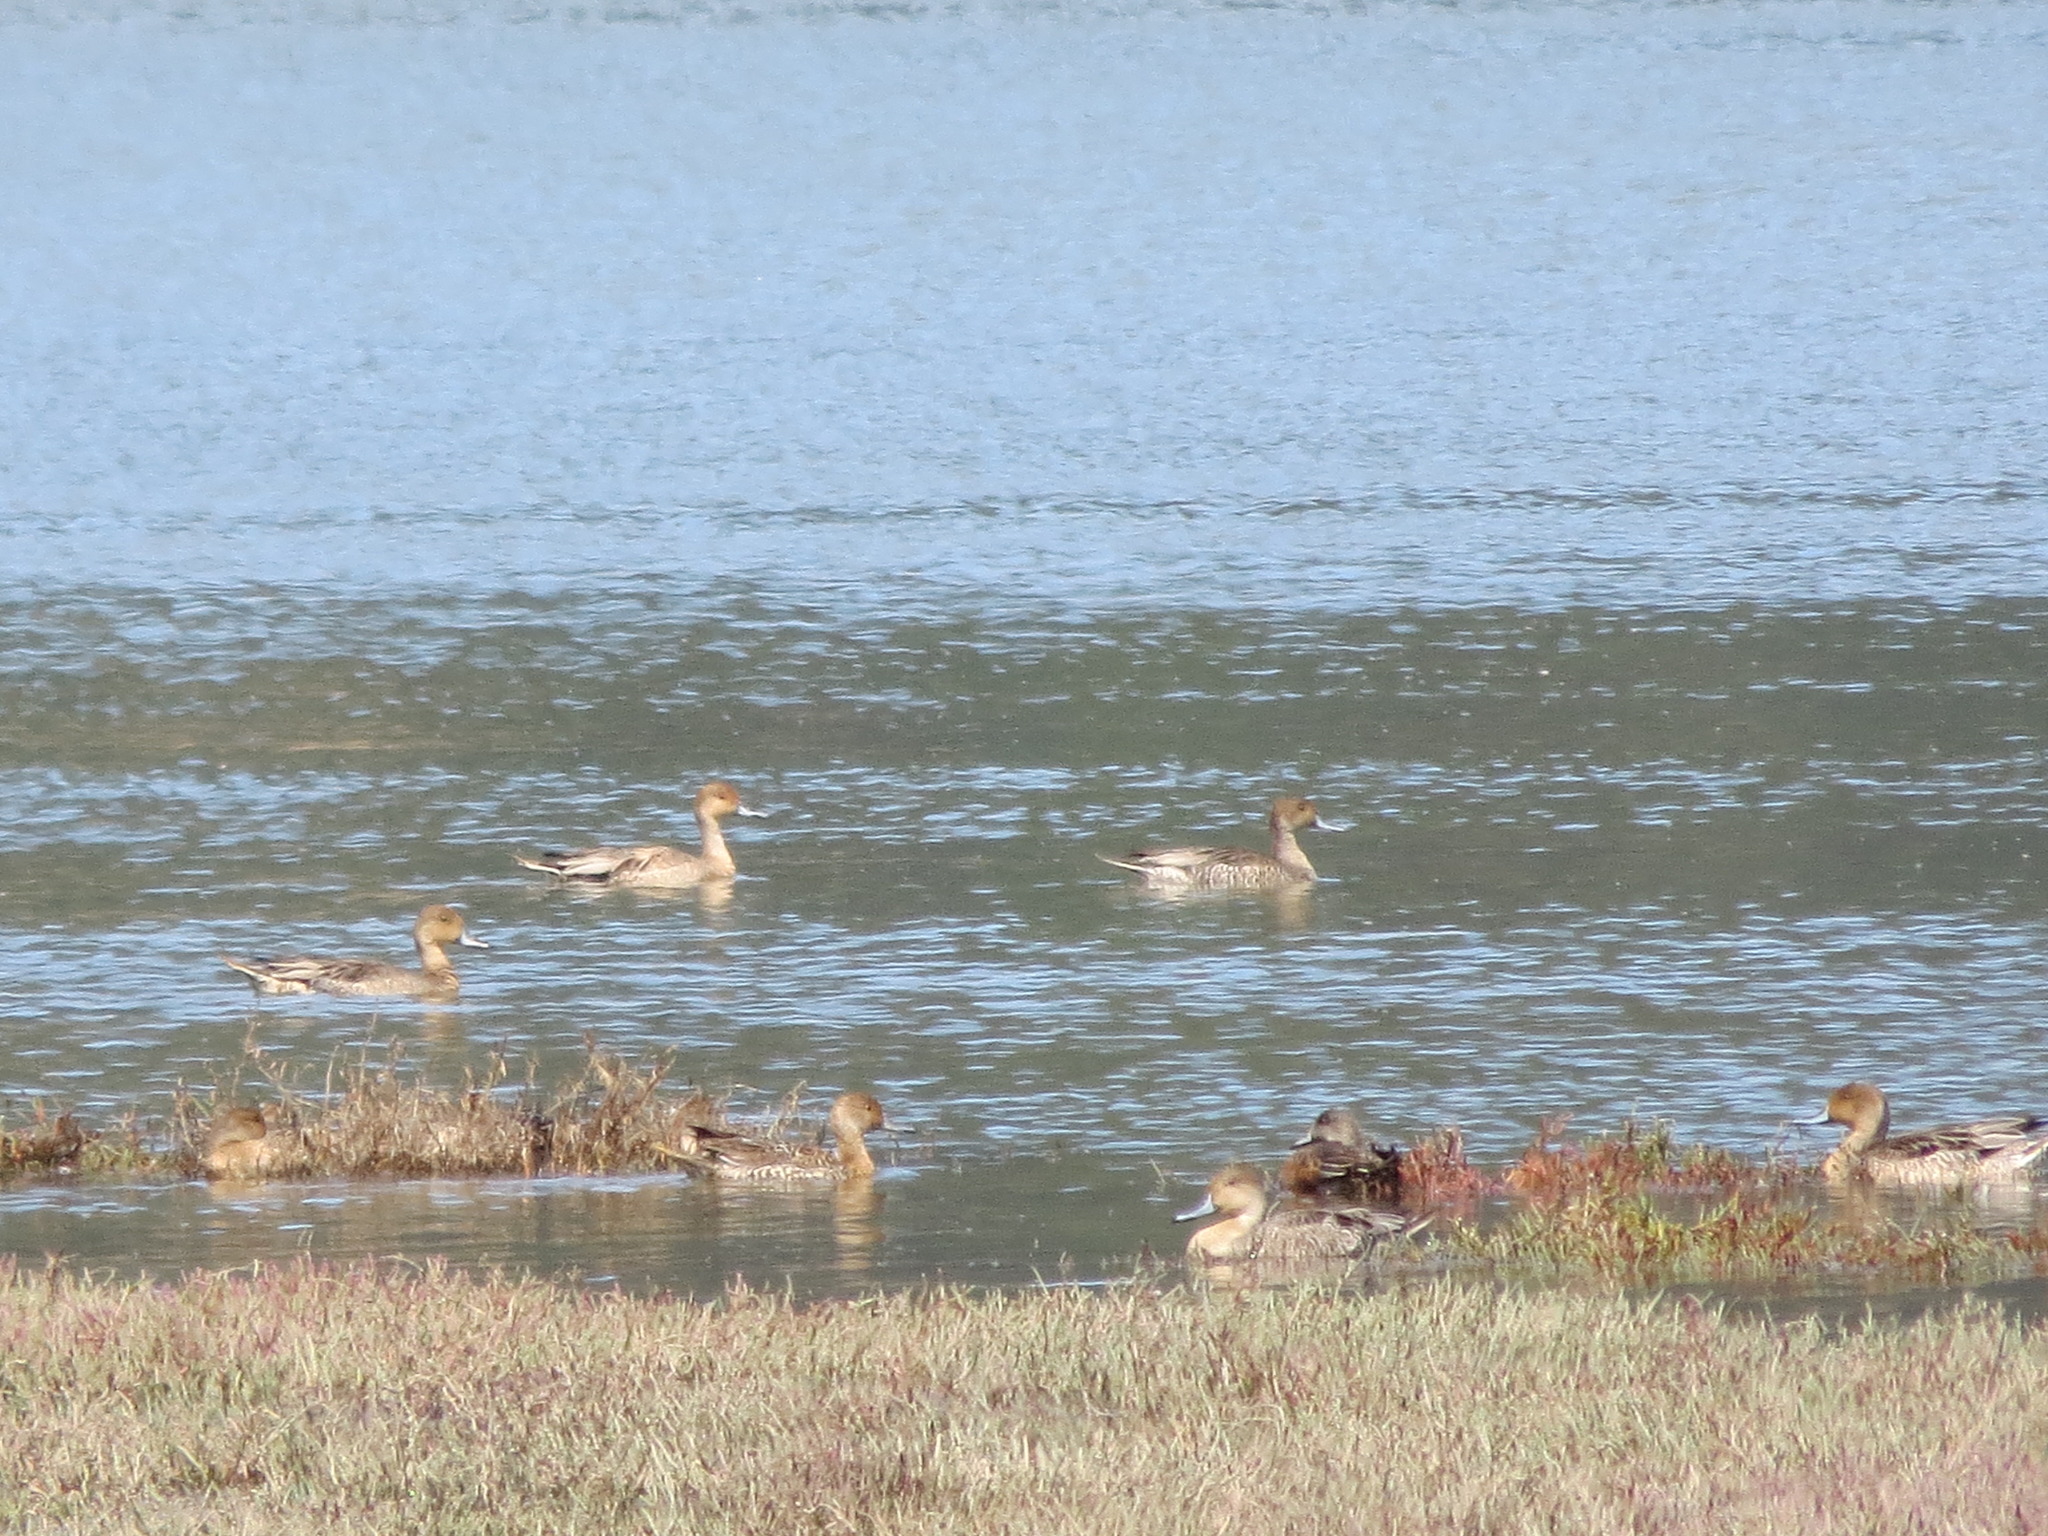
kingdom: Animalia
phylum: Chordata
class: Aves
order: Anseriformes
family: Anatidae
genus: Anas
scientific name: Anas acuta
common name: Northern pintail
